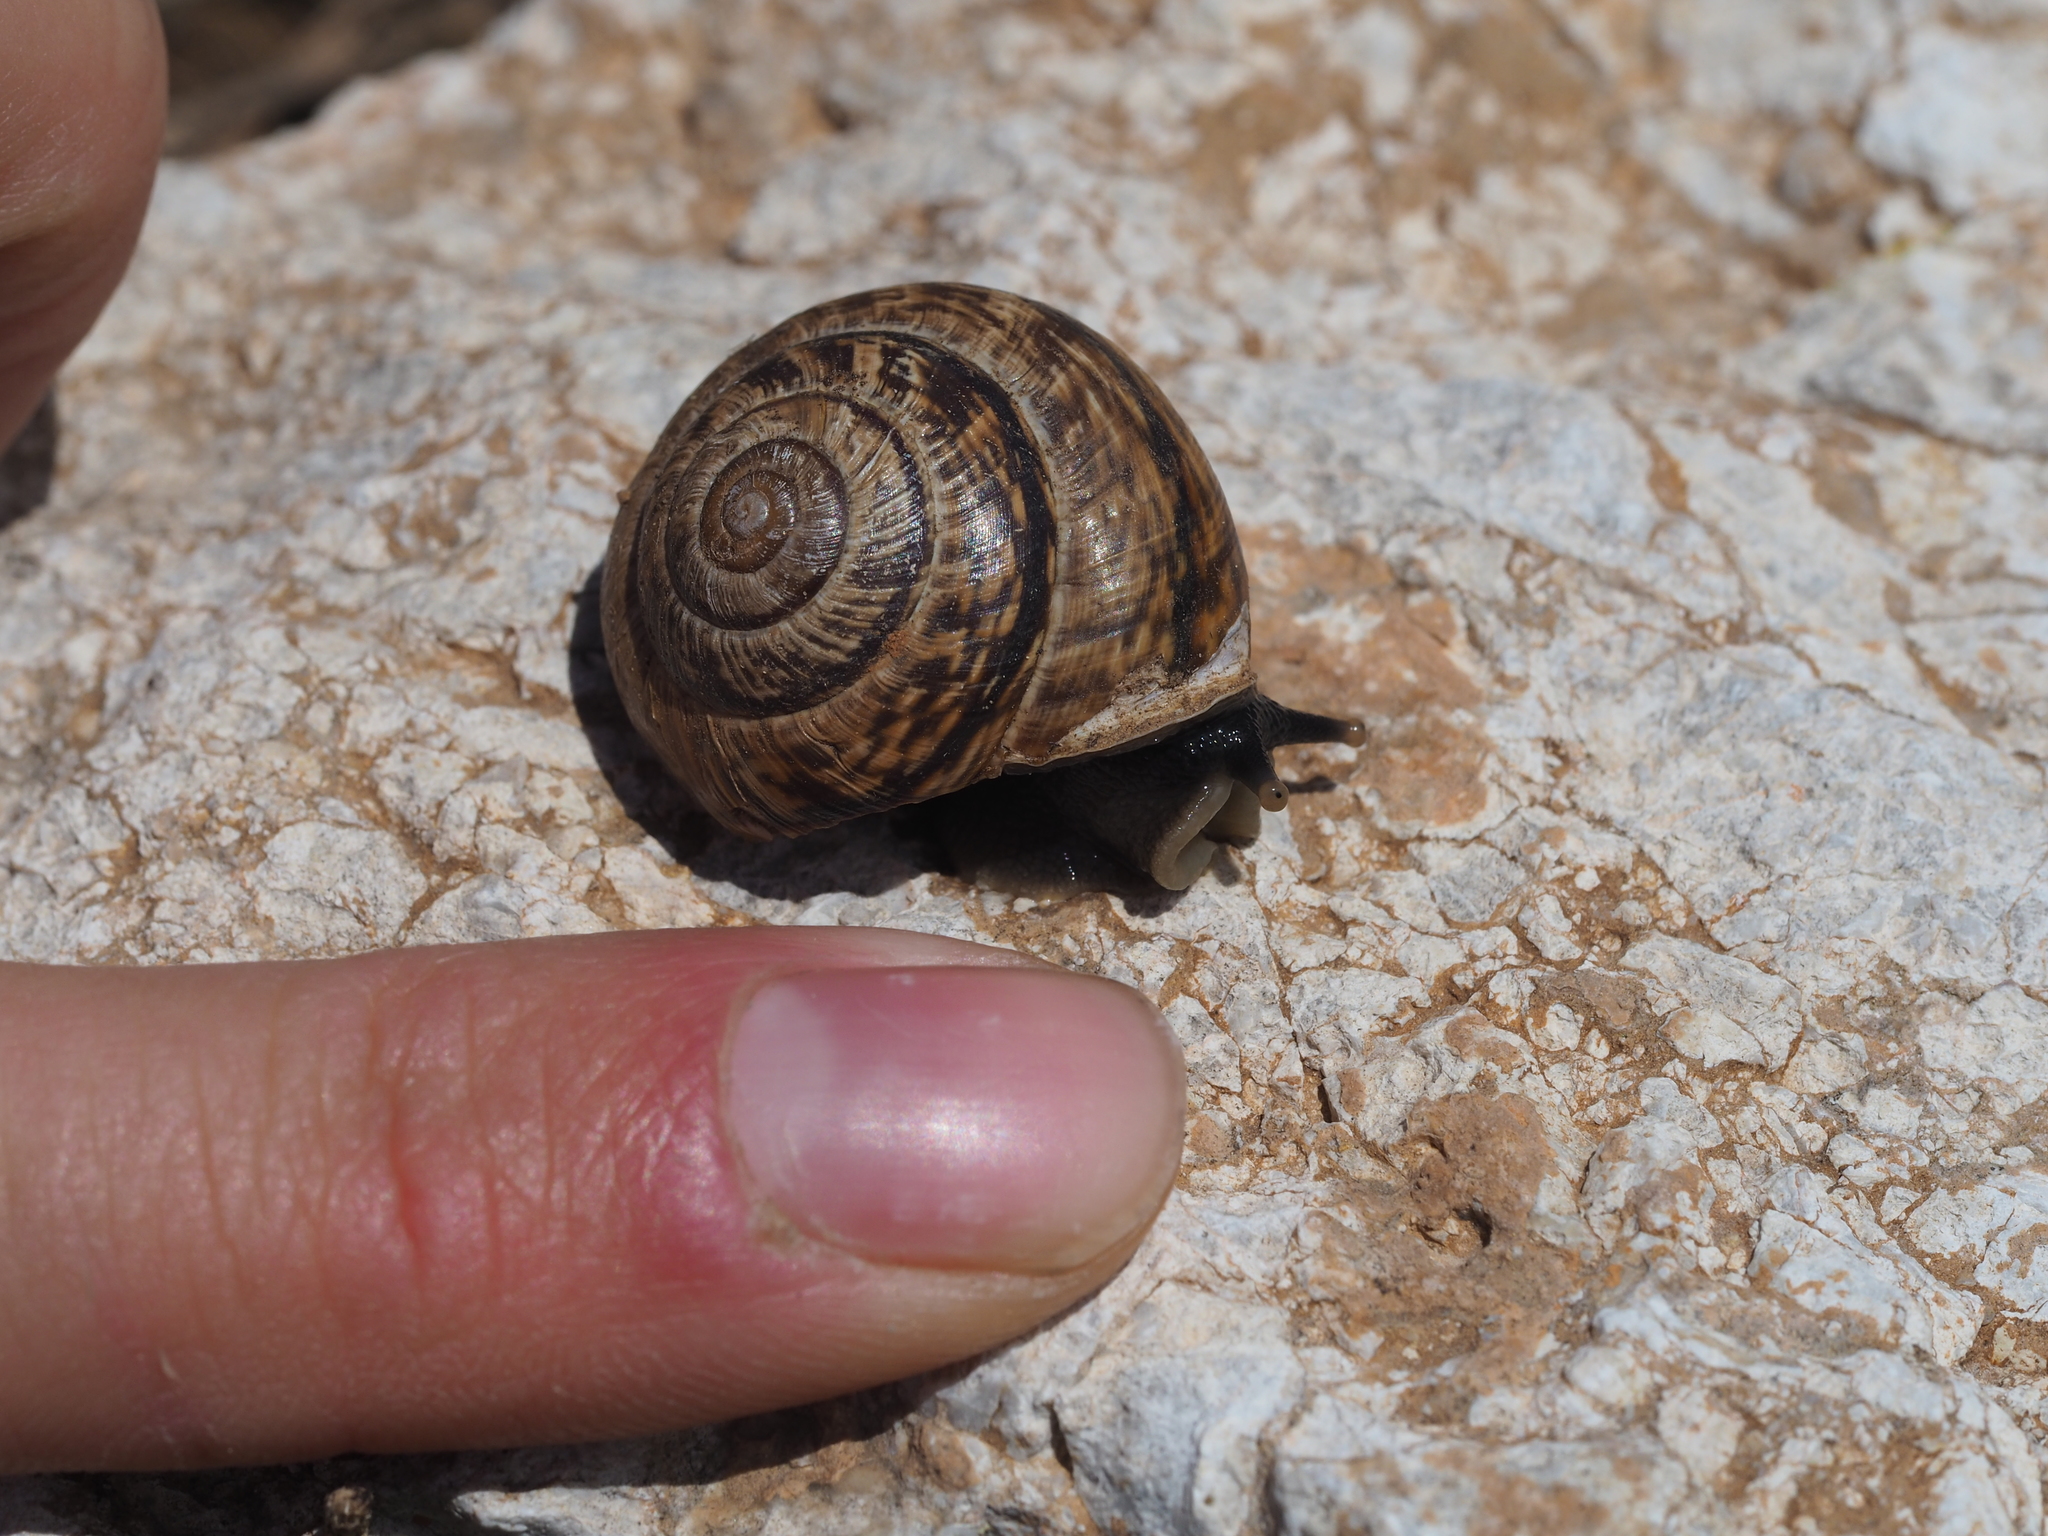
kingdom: Animalia
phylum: Mollusca
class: Gastropoda
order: Stylommatophora
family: Helicidae
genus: Arianta
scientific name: Arianta arbustorum
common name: Copse snail
